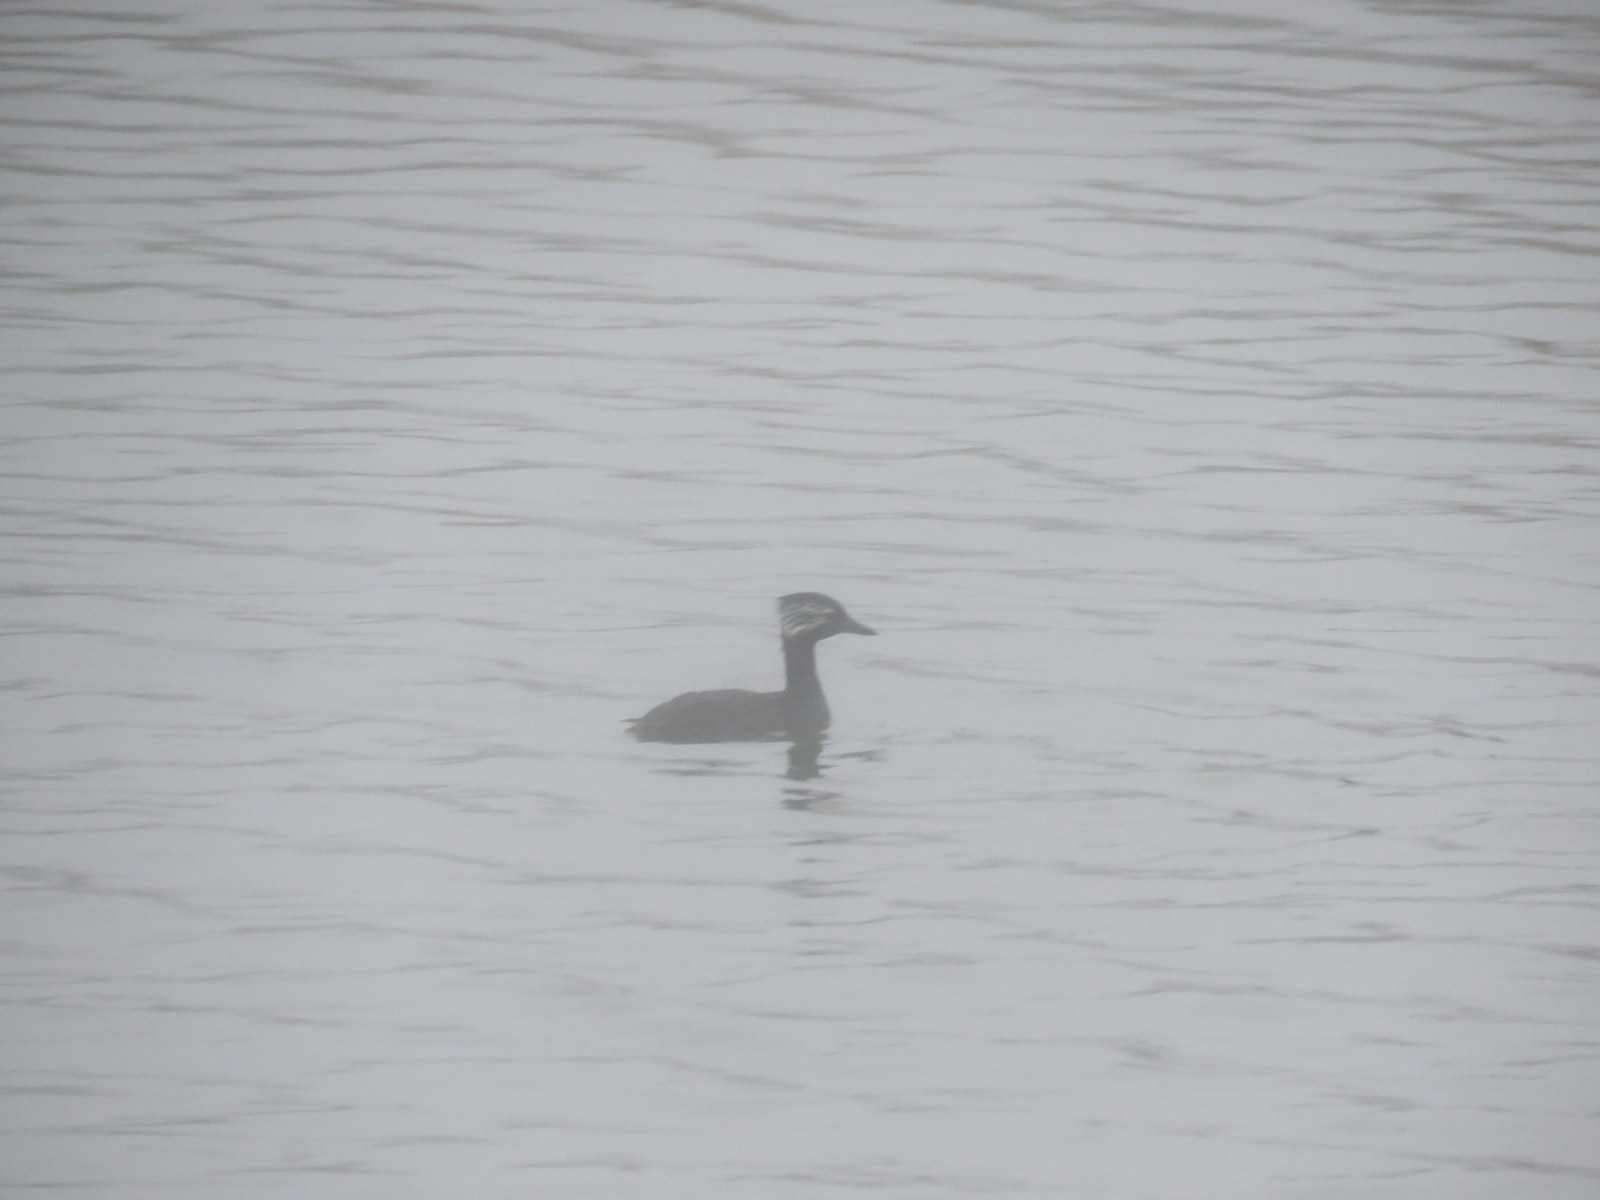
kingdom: Animalia
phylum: Chordata
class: Aves
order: Podicipediformes
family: Podicipedidae
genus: Rollandia
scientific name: Rollandia rolland
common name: White-tufted grebe
